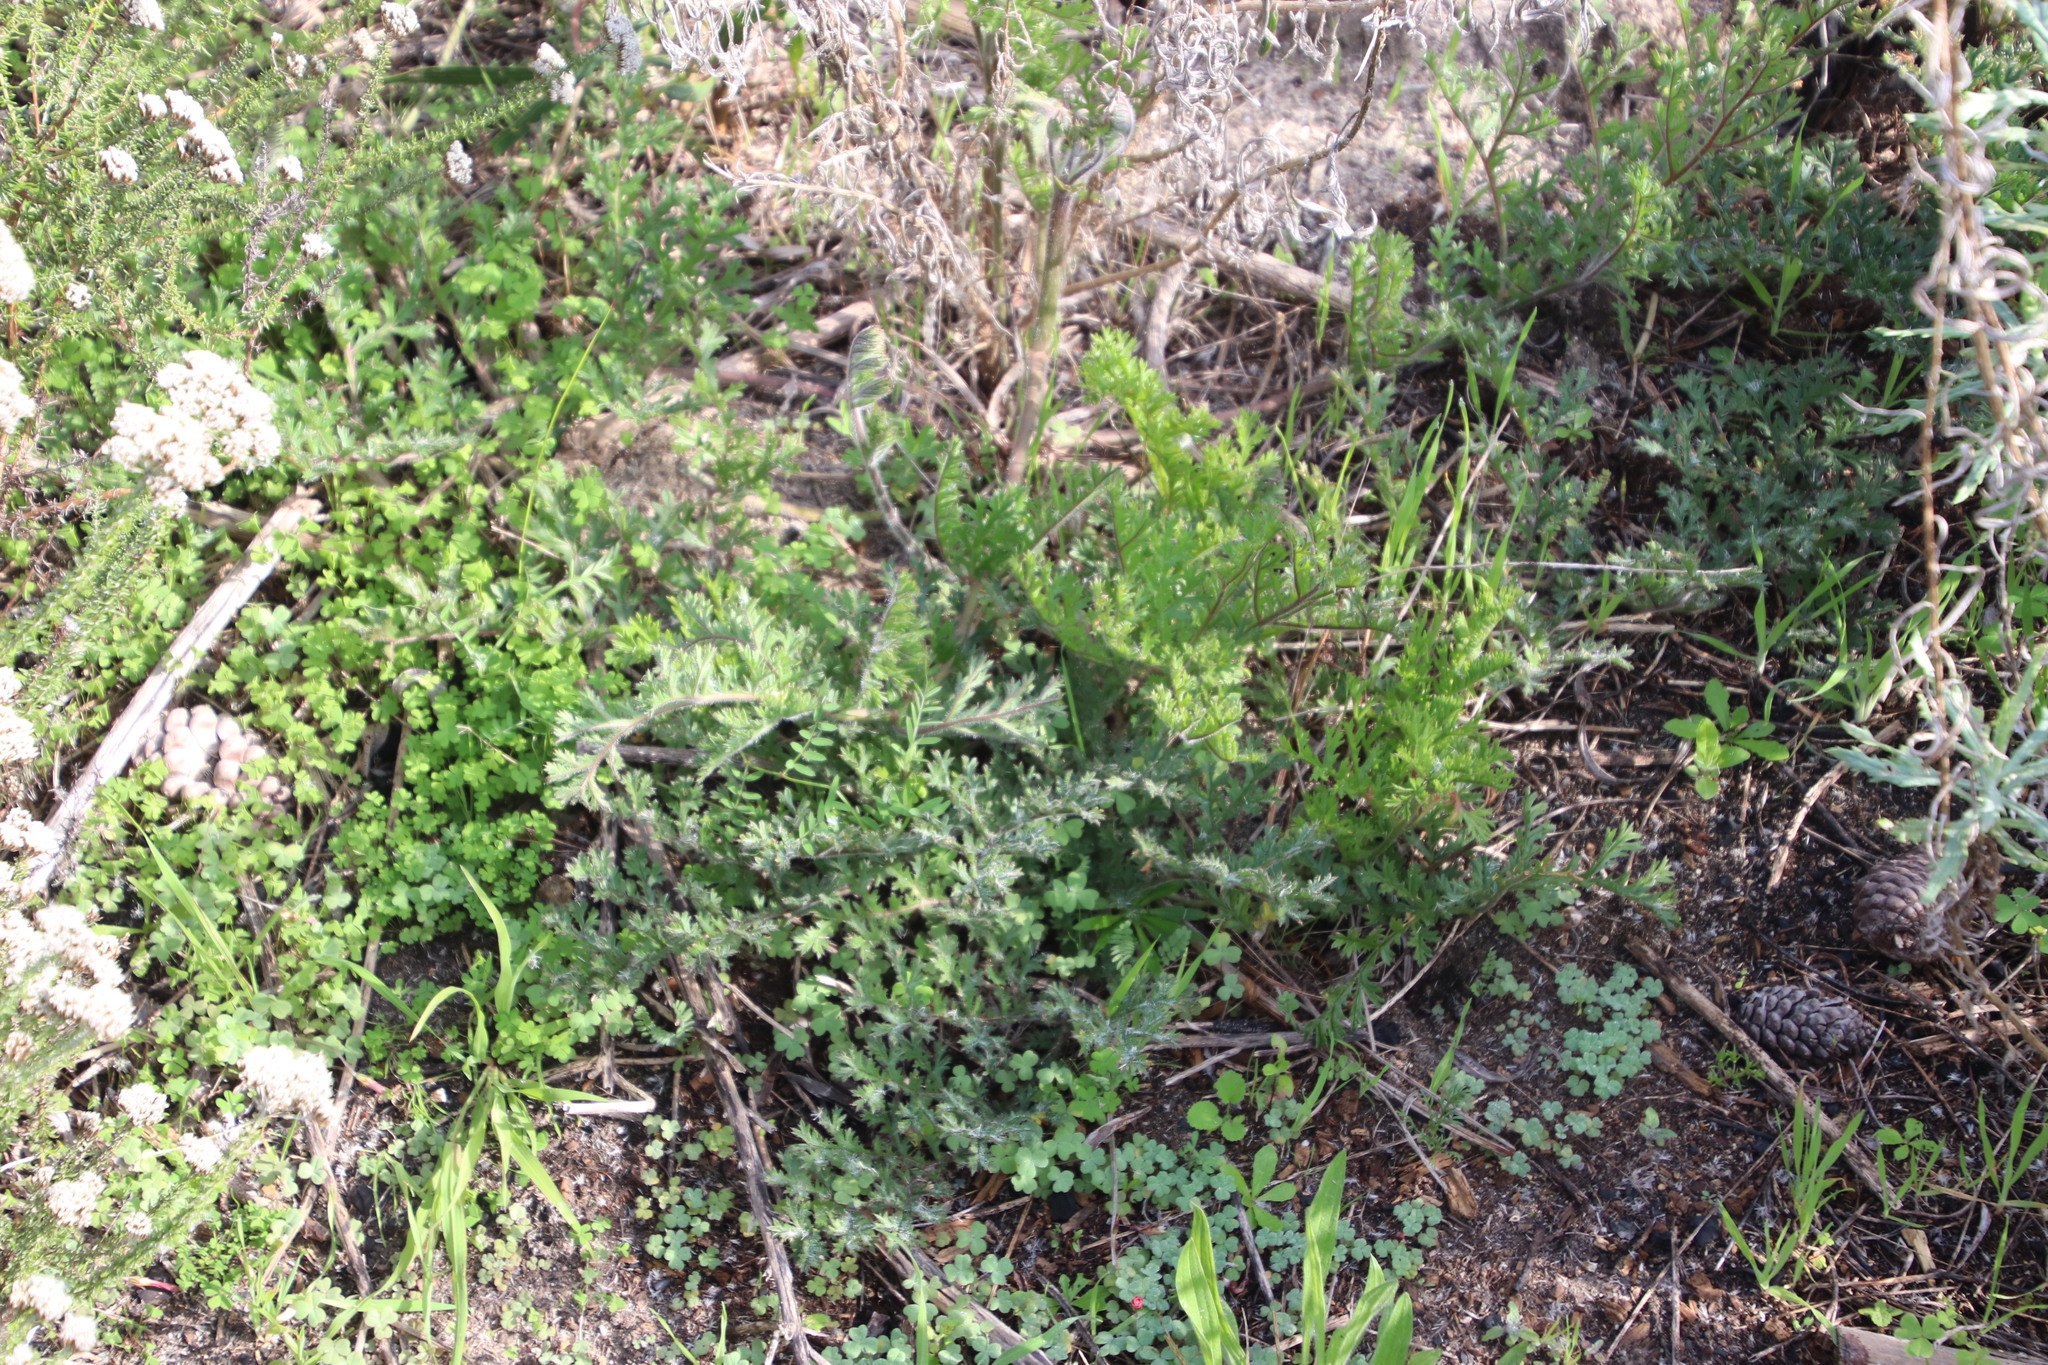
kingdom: Plantae
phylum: Tracheophyta
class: Magnoliopsida
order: Geraniales
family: Geraniaceae
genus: Pelargonium
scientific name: Pelargonium triste
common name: Night-scent pelargonium
